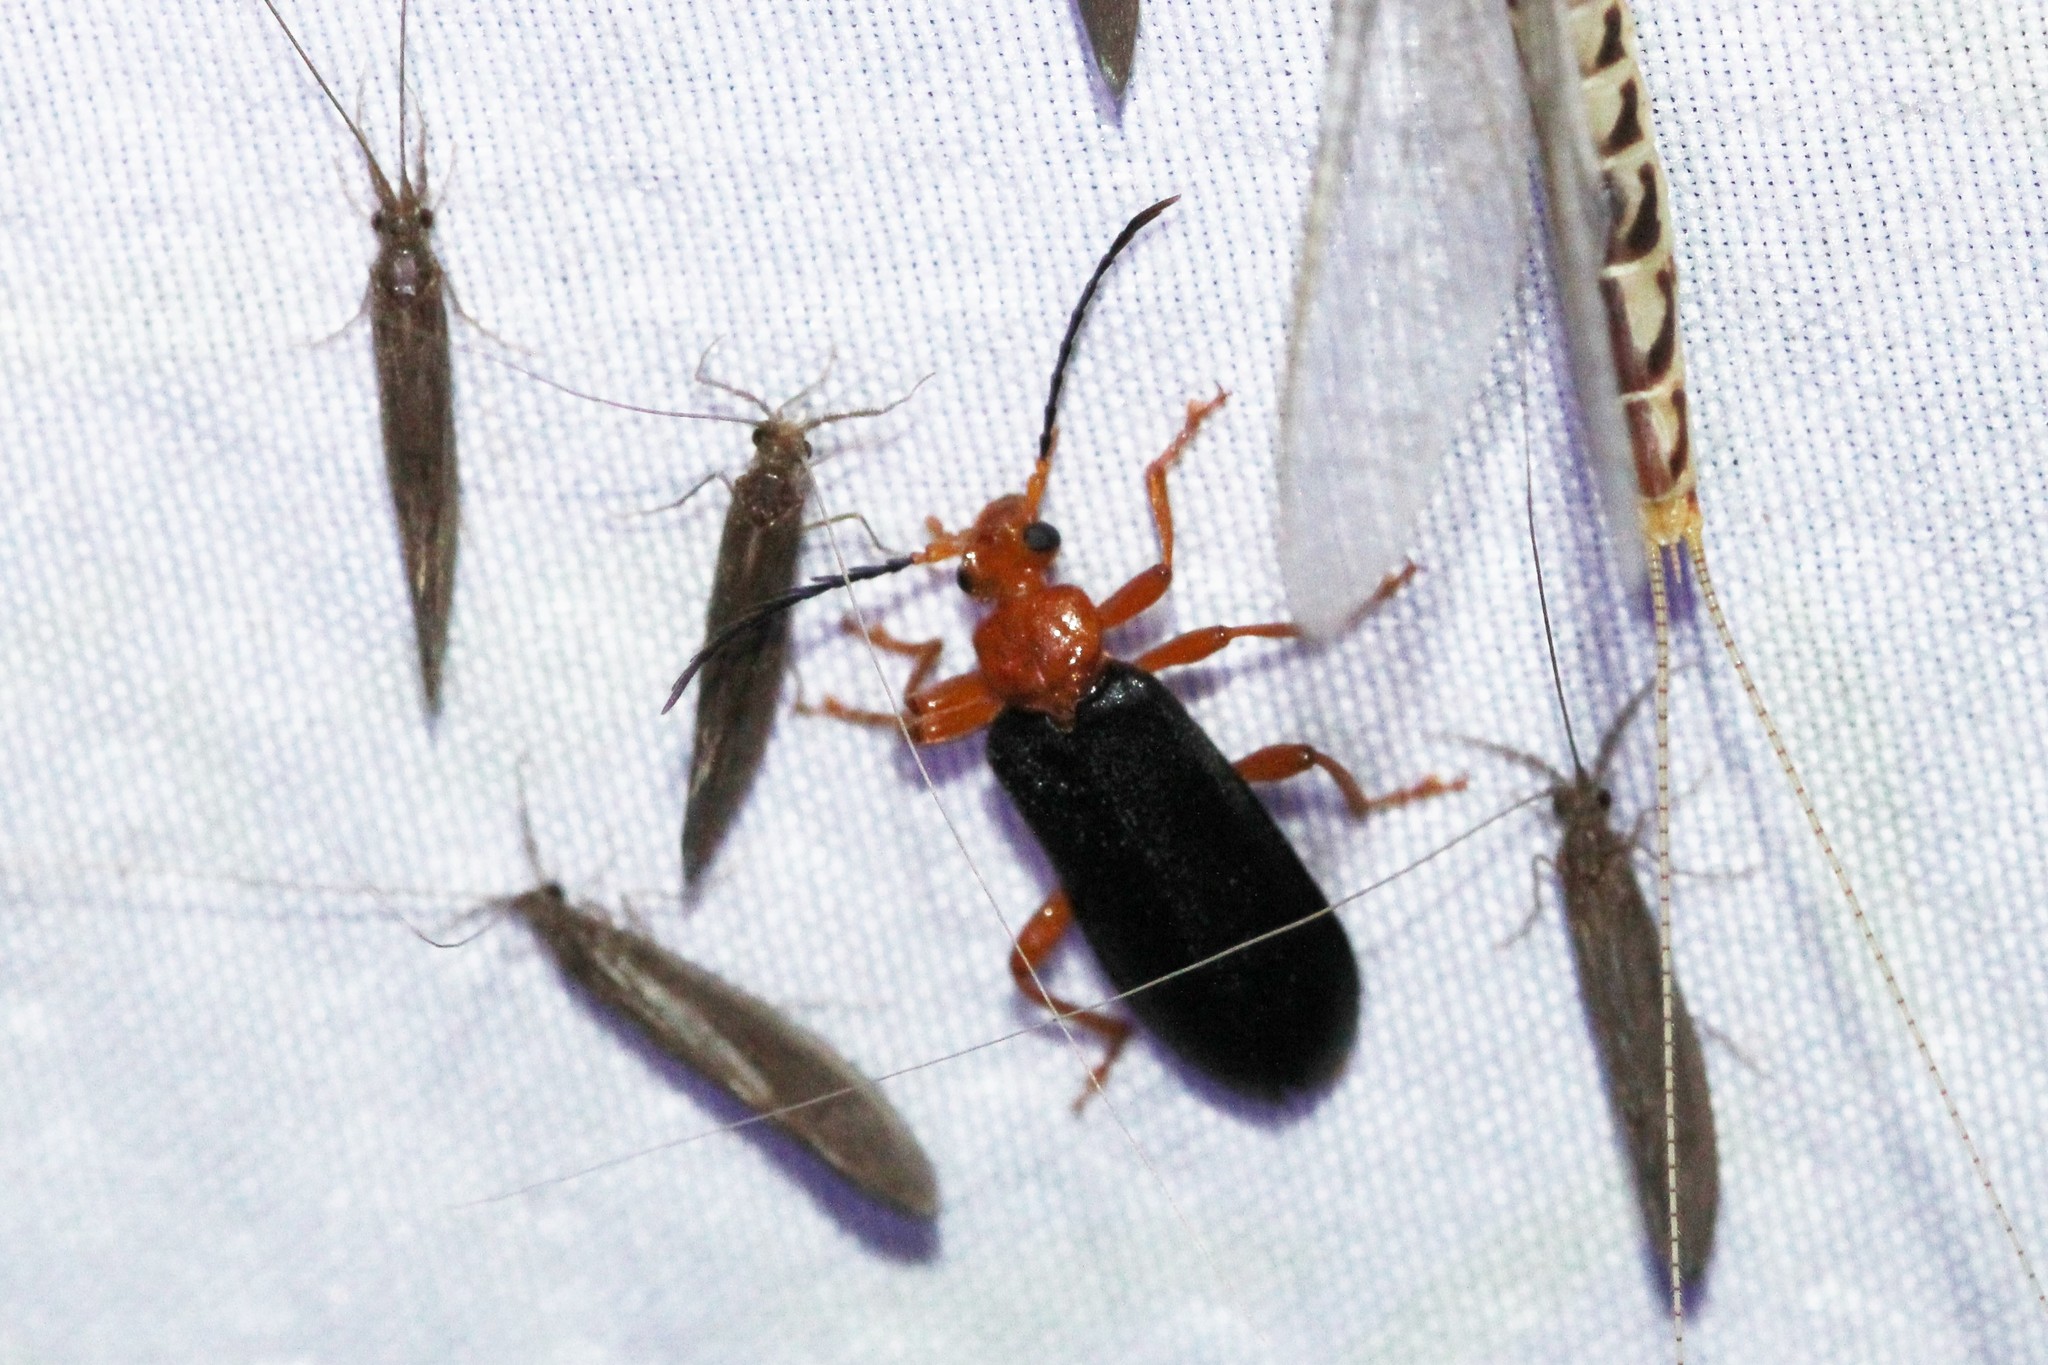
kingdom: Animalia
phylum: Arthropoda
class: Insecta
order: Coleoptera
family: Pyrochroidae
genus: Neopyrochroa
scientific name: Neopyrochroa flabellata
